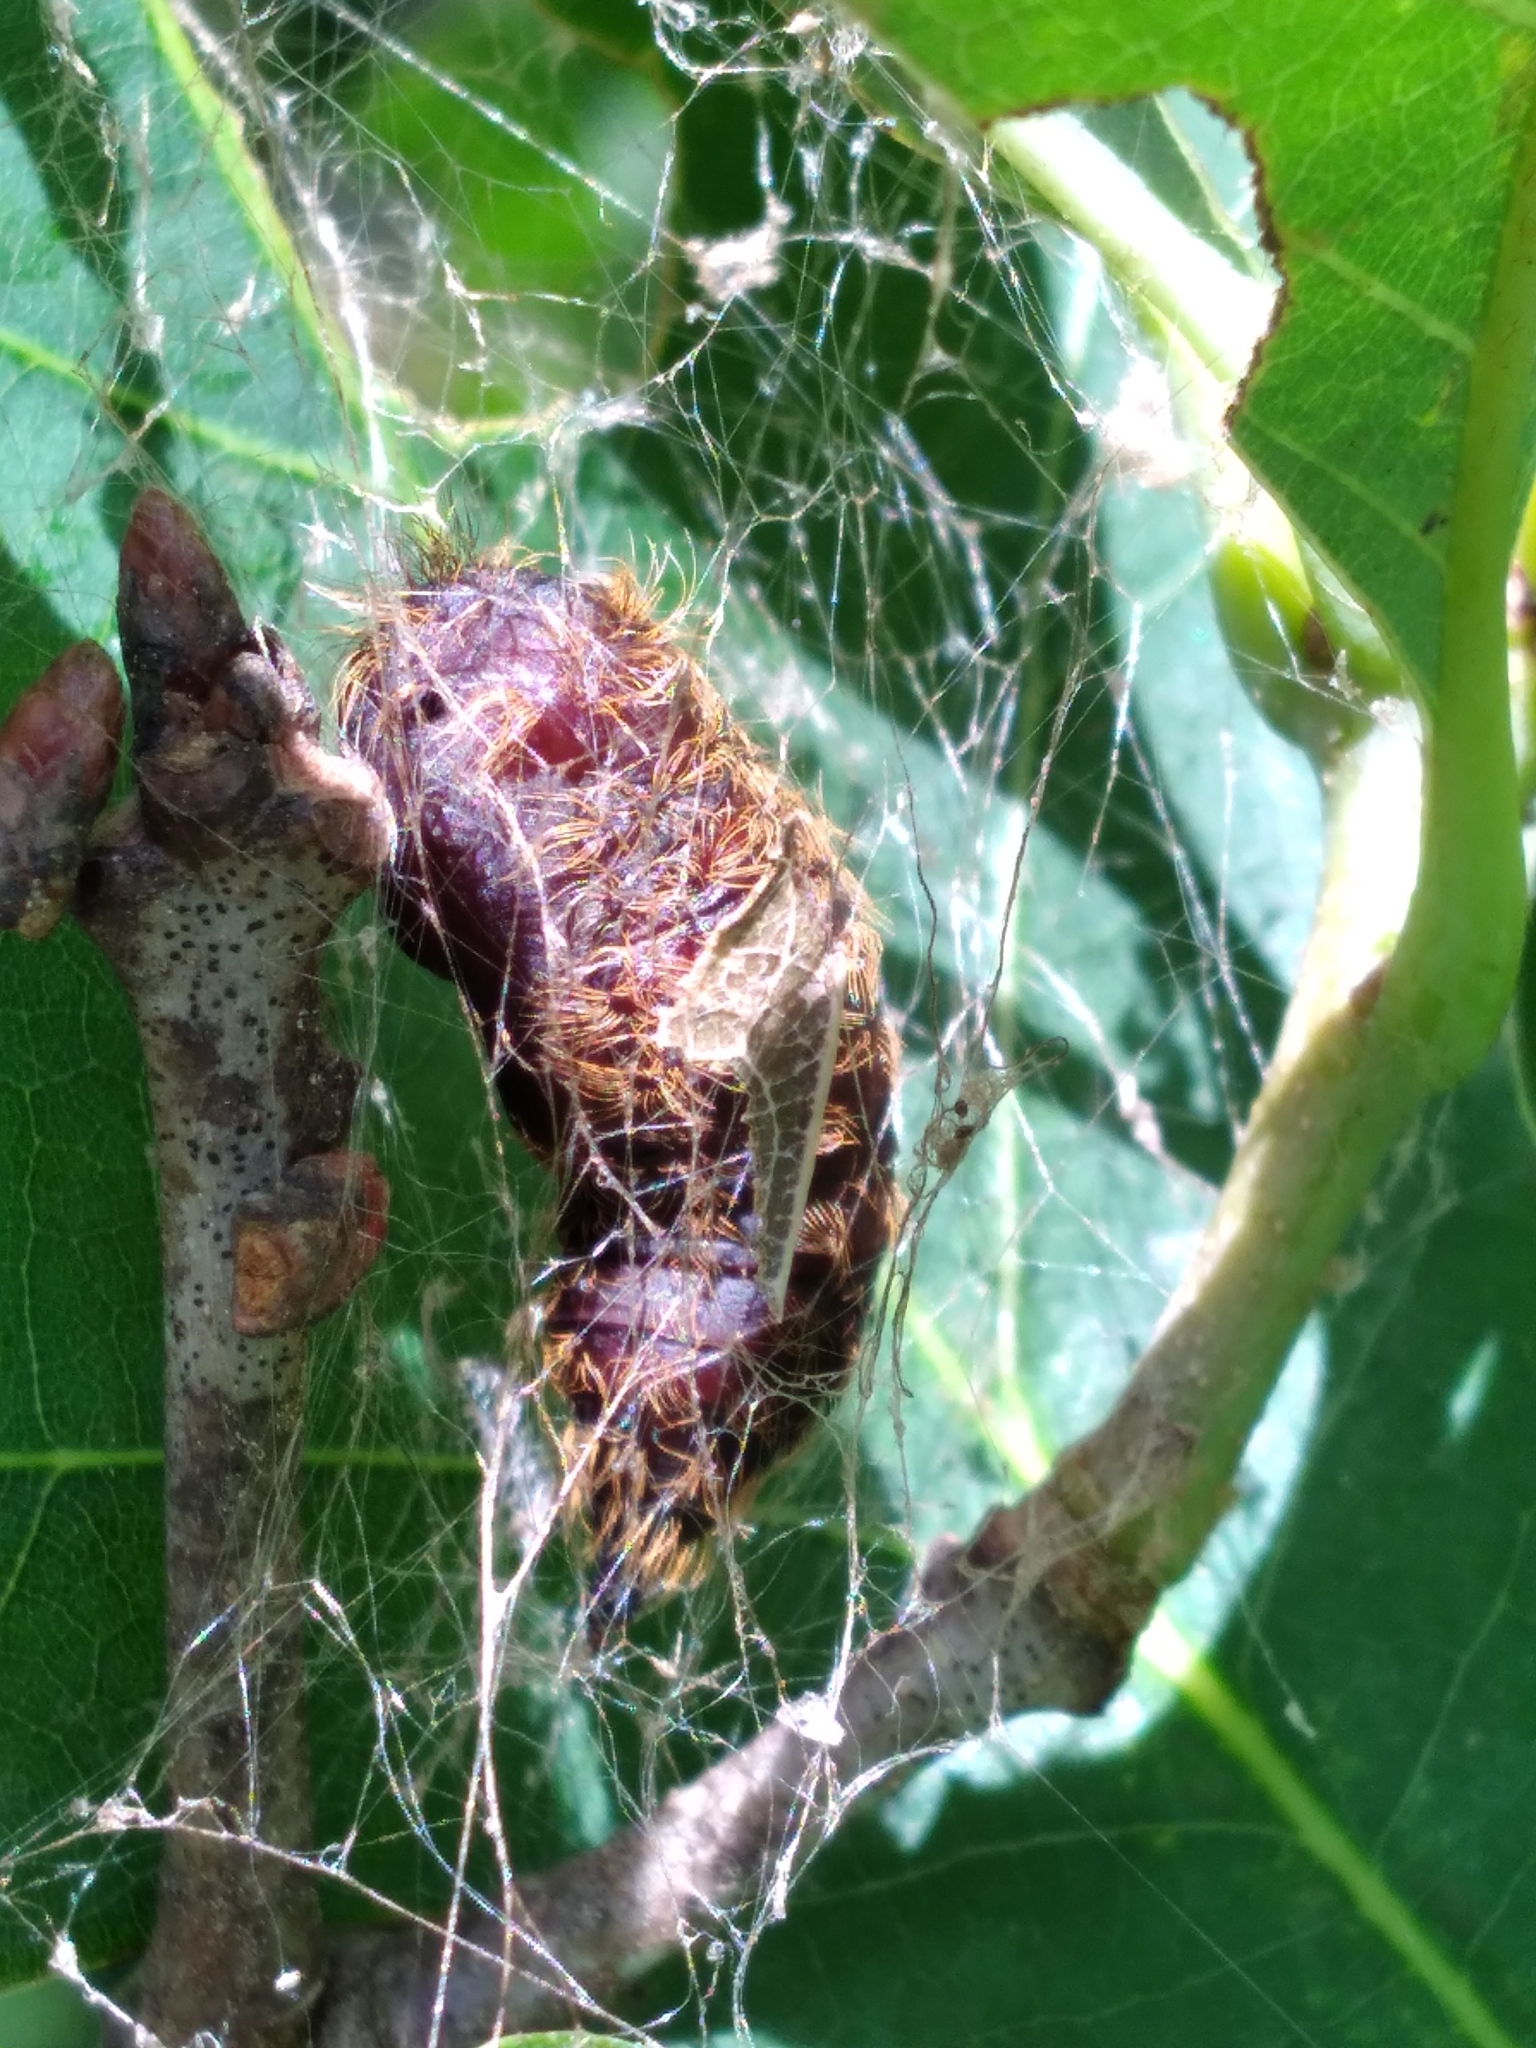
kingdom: Animalia
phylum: Arthropoda
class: Insecta
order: Lepidoptera
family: Erebidae
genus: Lymantria
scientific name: Lymantria dispar
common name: Gypsy moth
